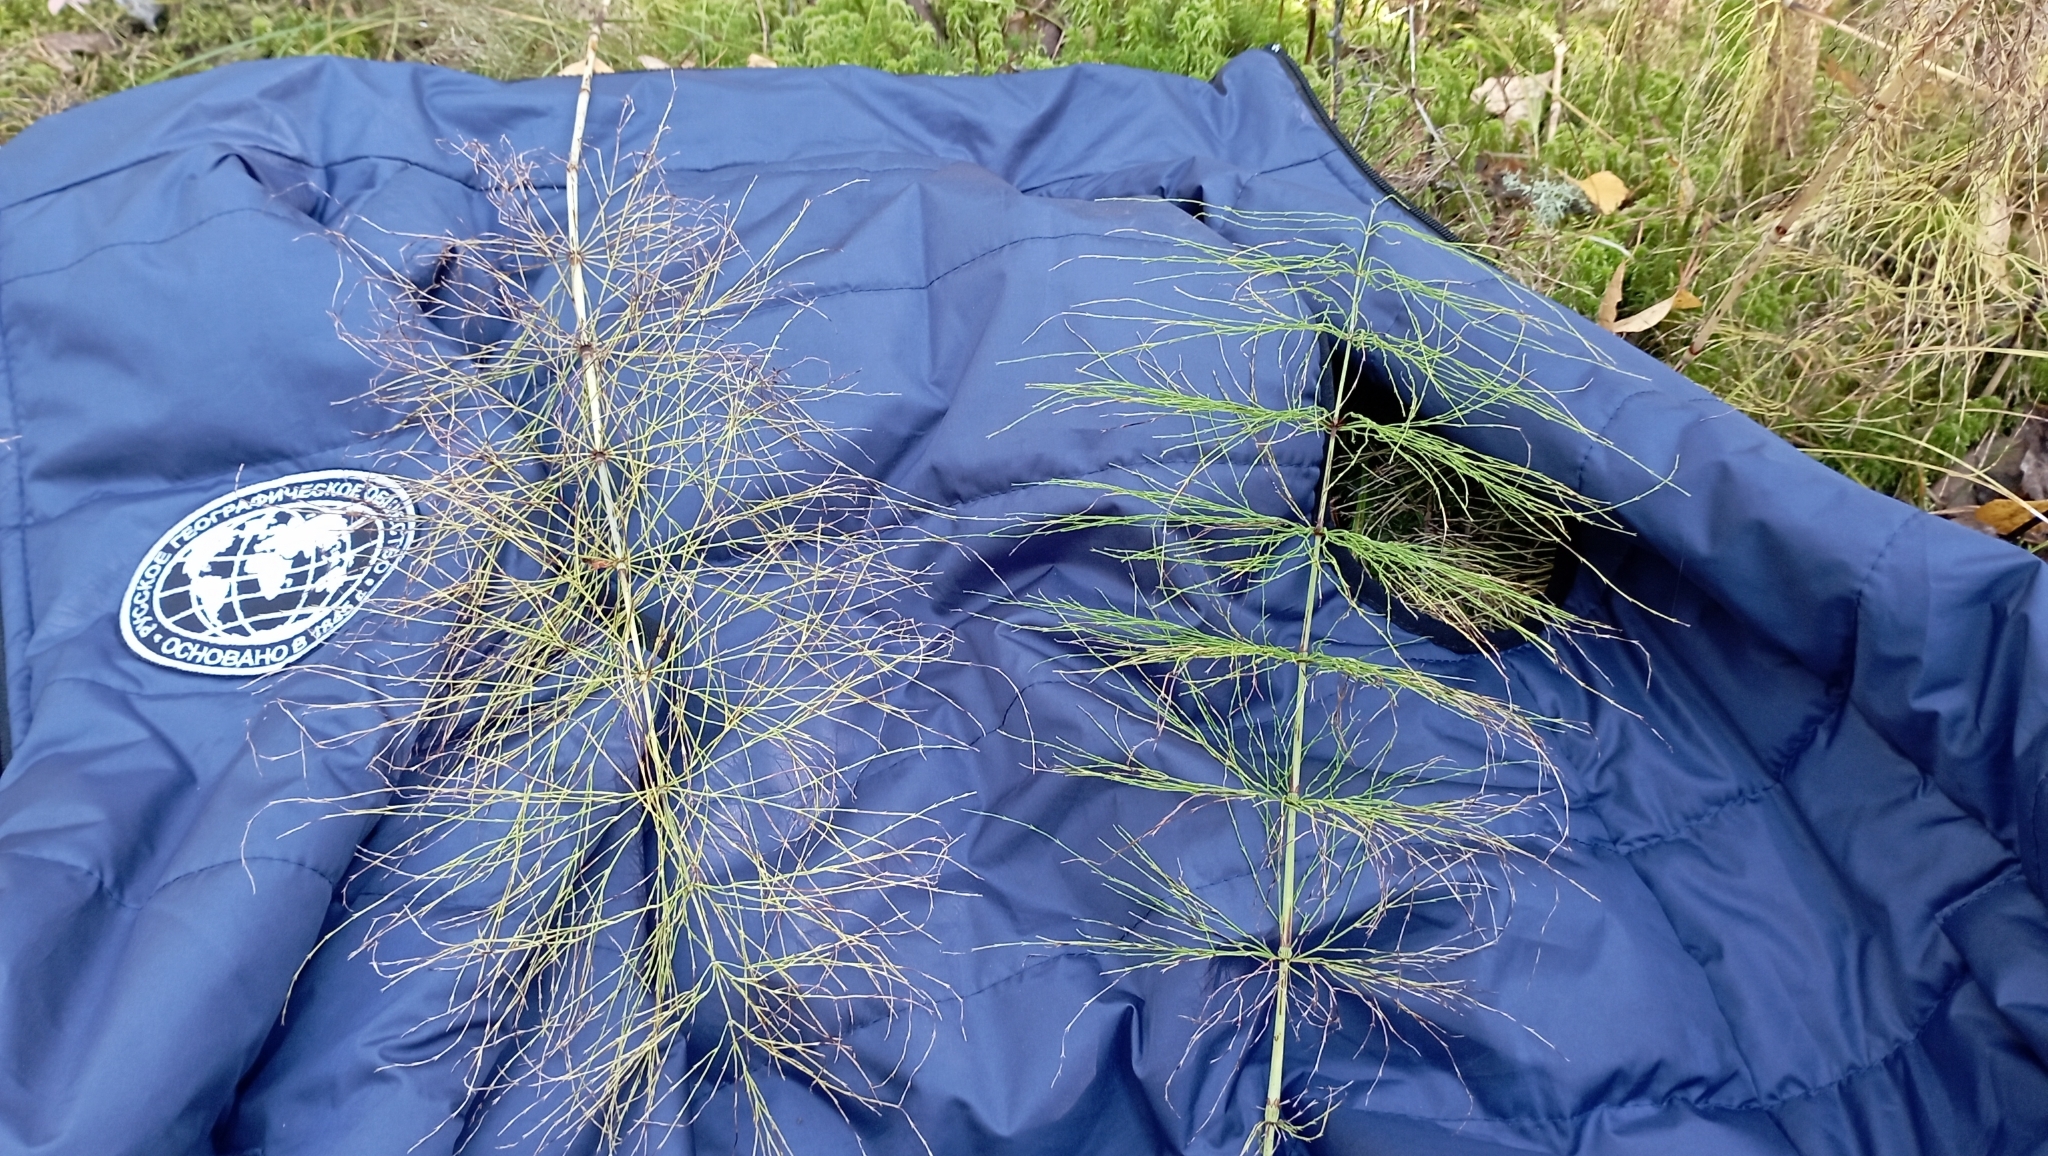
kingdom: Plantae
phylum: Tracheophyta
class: Polypodiopsida
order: Equisetales
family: Equisetaceae
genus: Equisetum
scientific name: Equisetum sylvaticum
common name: Wood horsetail
